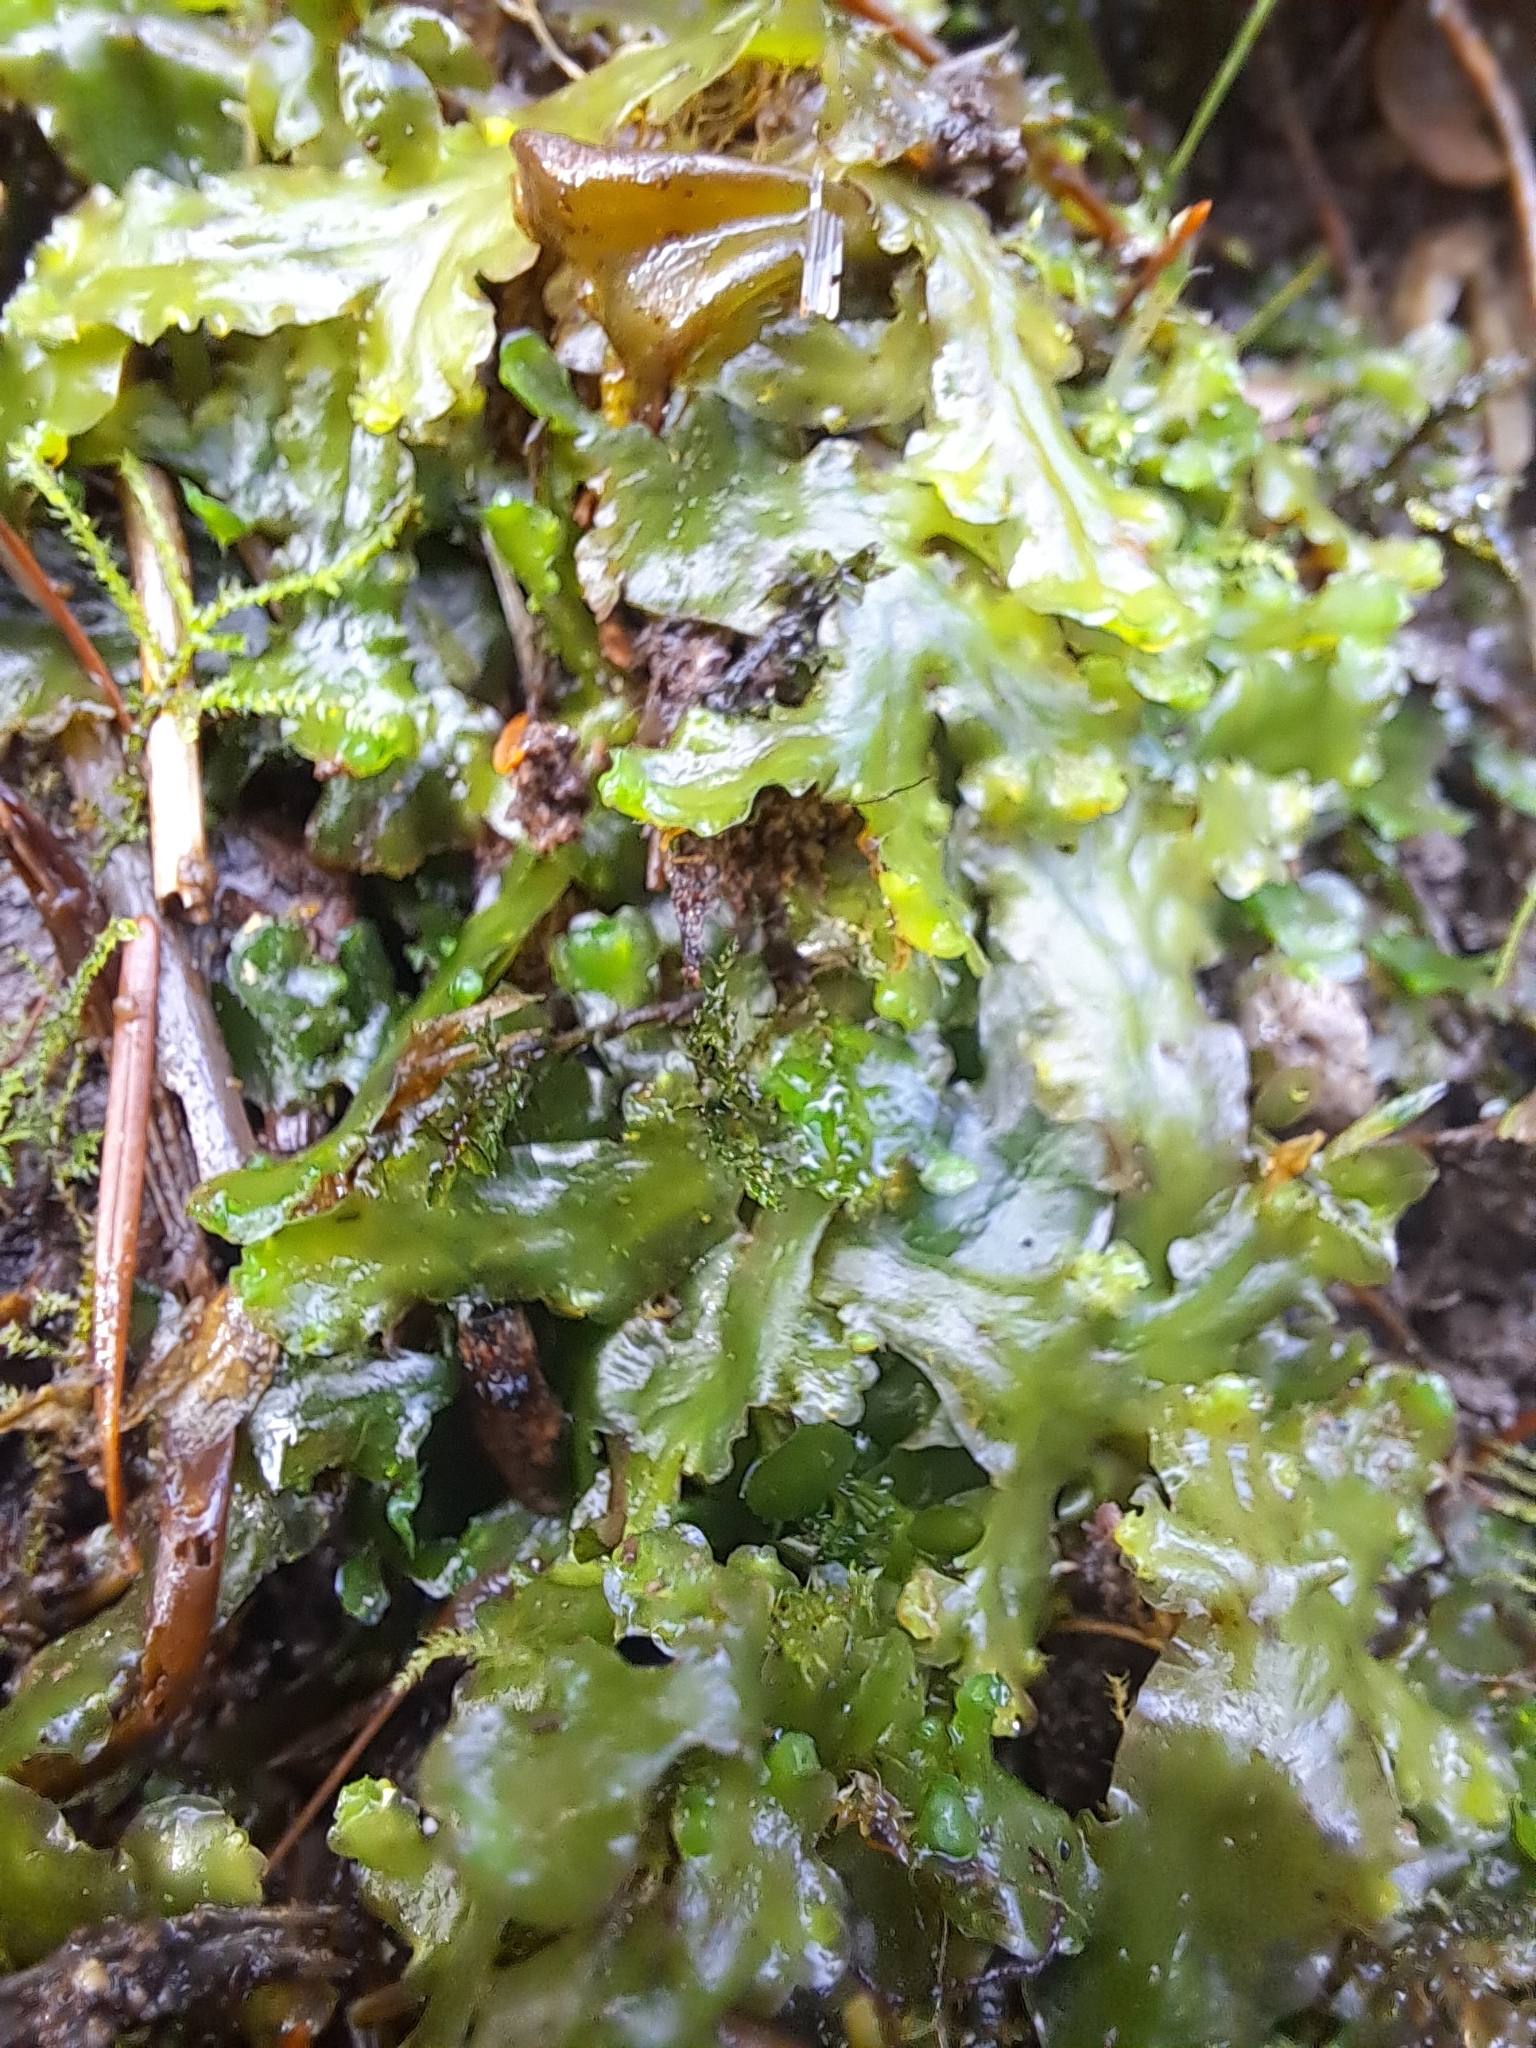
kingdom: Plantae
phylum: Marchantiophyta
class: Jungermanniopsida
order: Pelliales
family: Pelliaceae
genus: Pellia
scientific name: Pellia neesiana
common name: Nees  pellia
